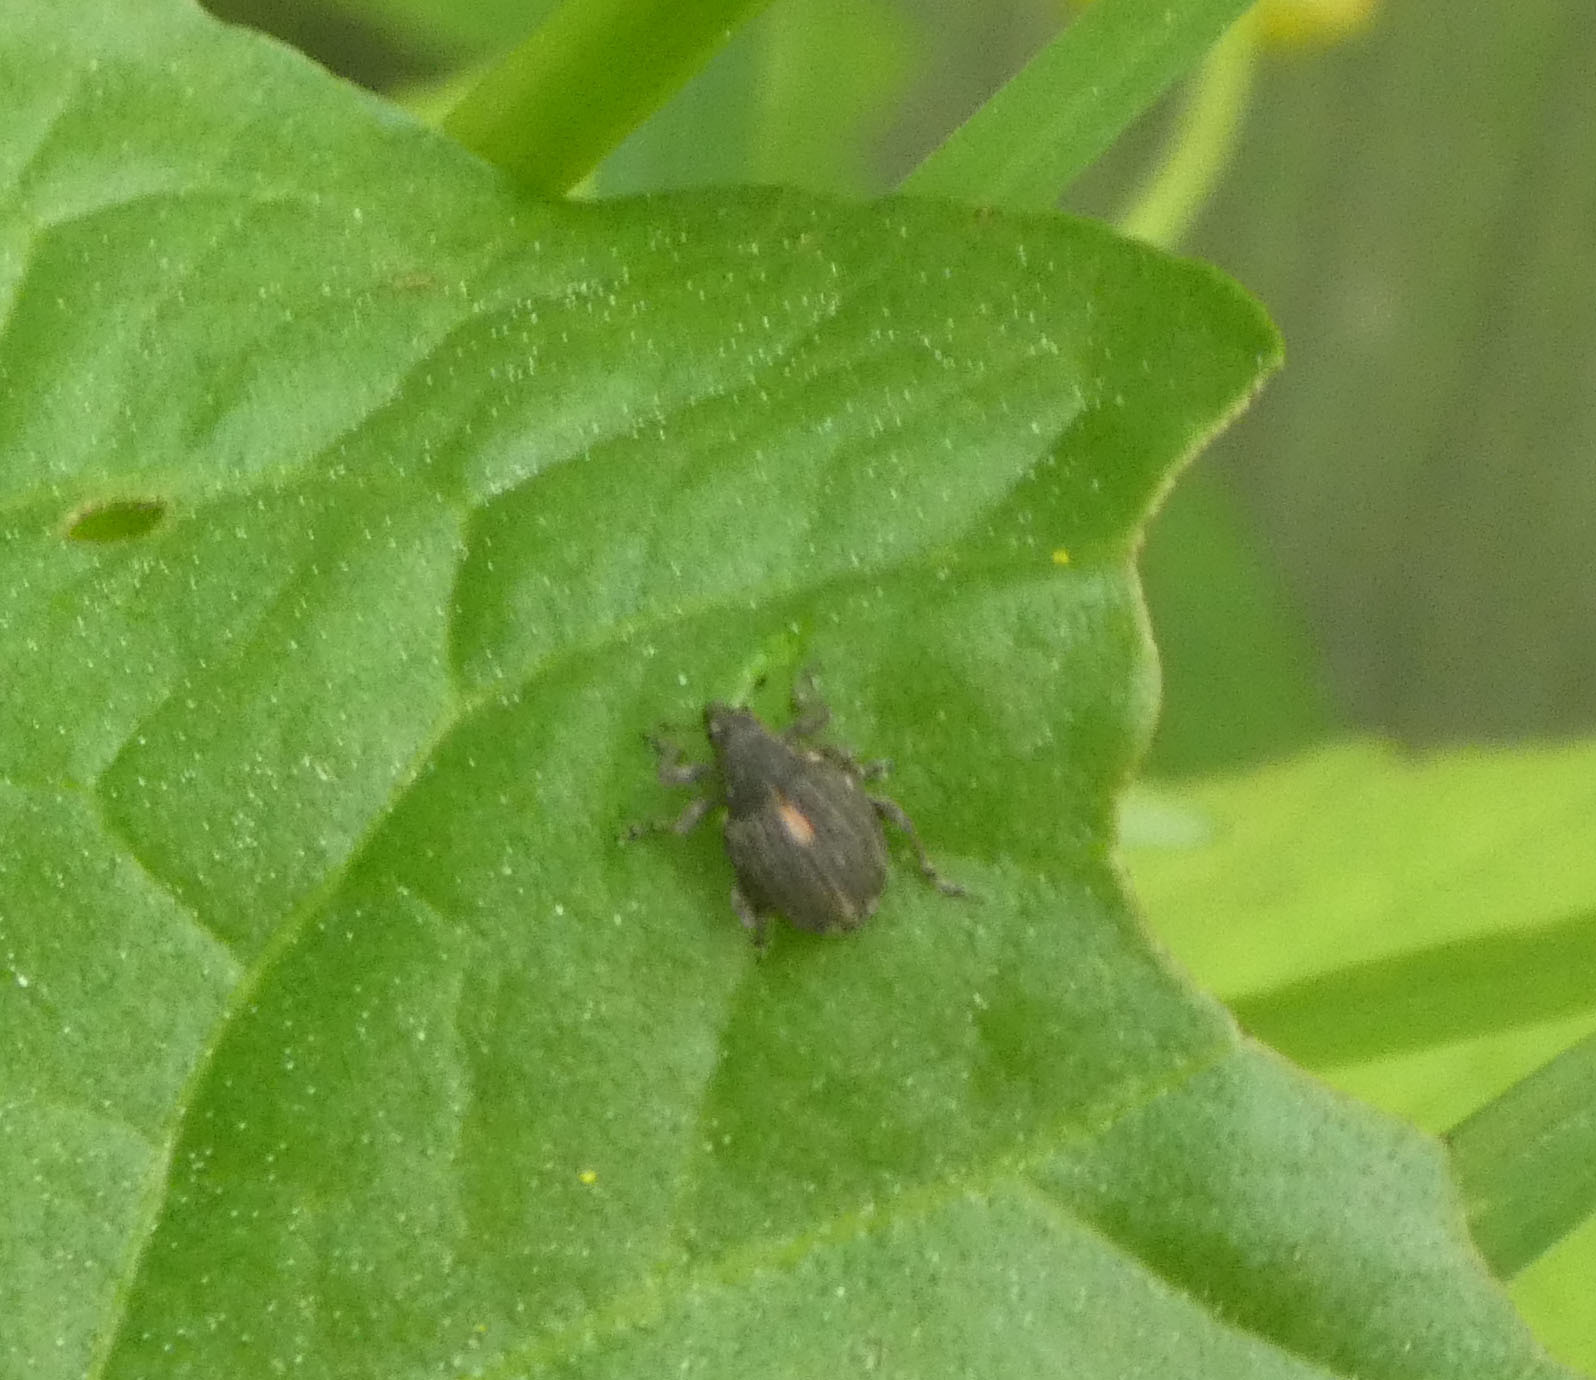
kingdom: Animalia
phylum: Arthropoda
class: Insecta
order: Coleoptera
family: Curculionidae
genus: Rhinoncus
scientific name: Rhinoncus leucostigma
